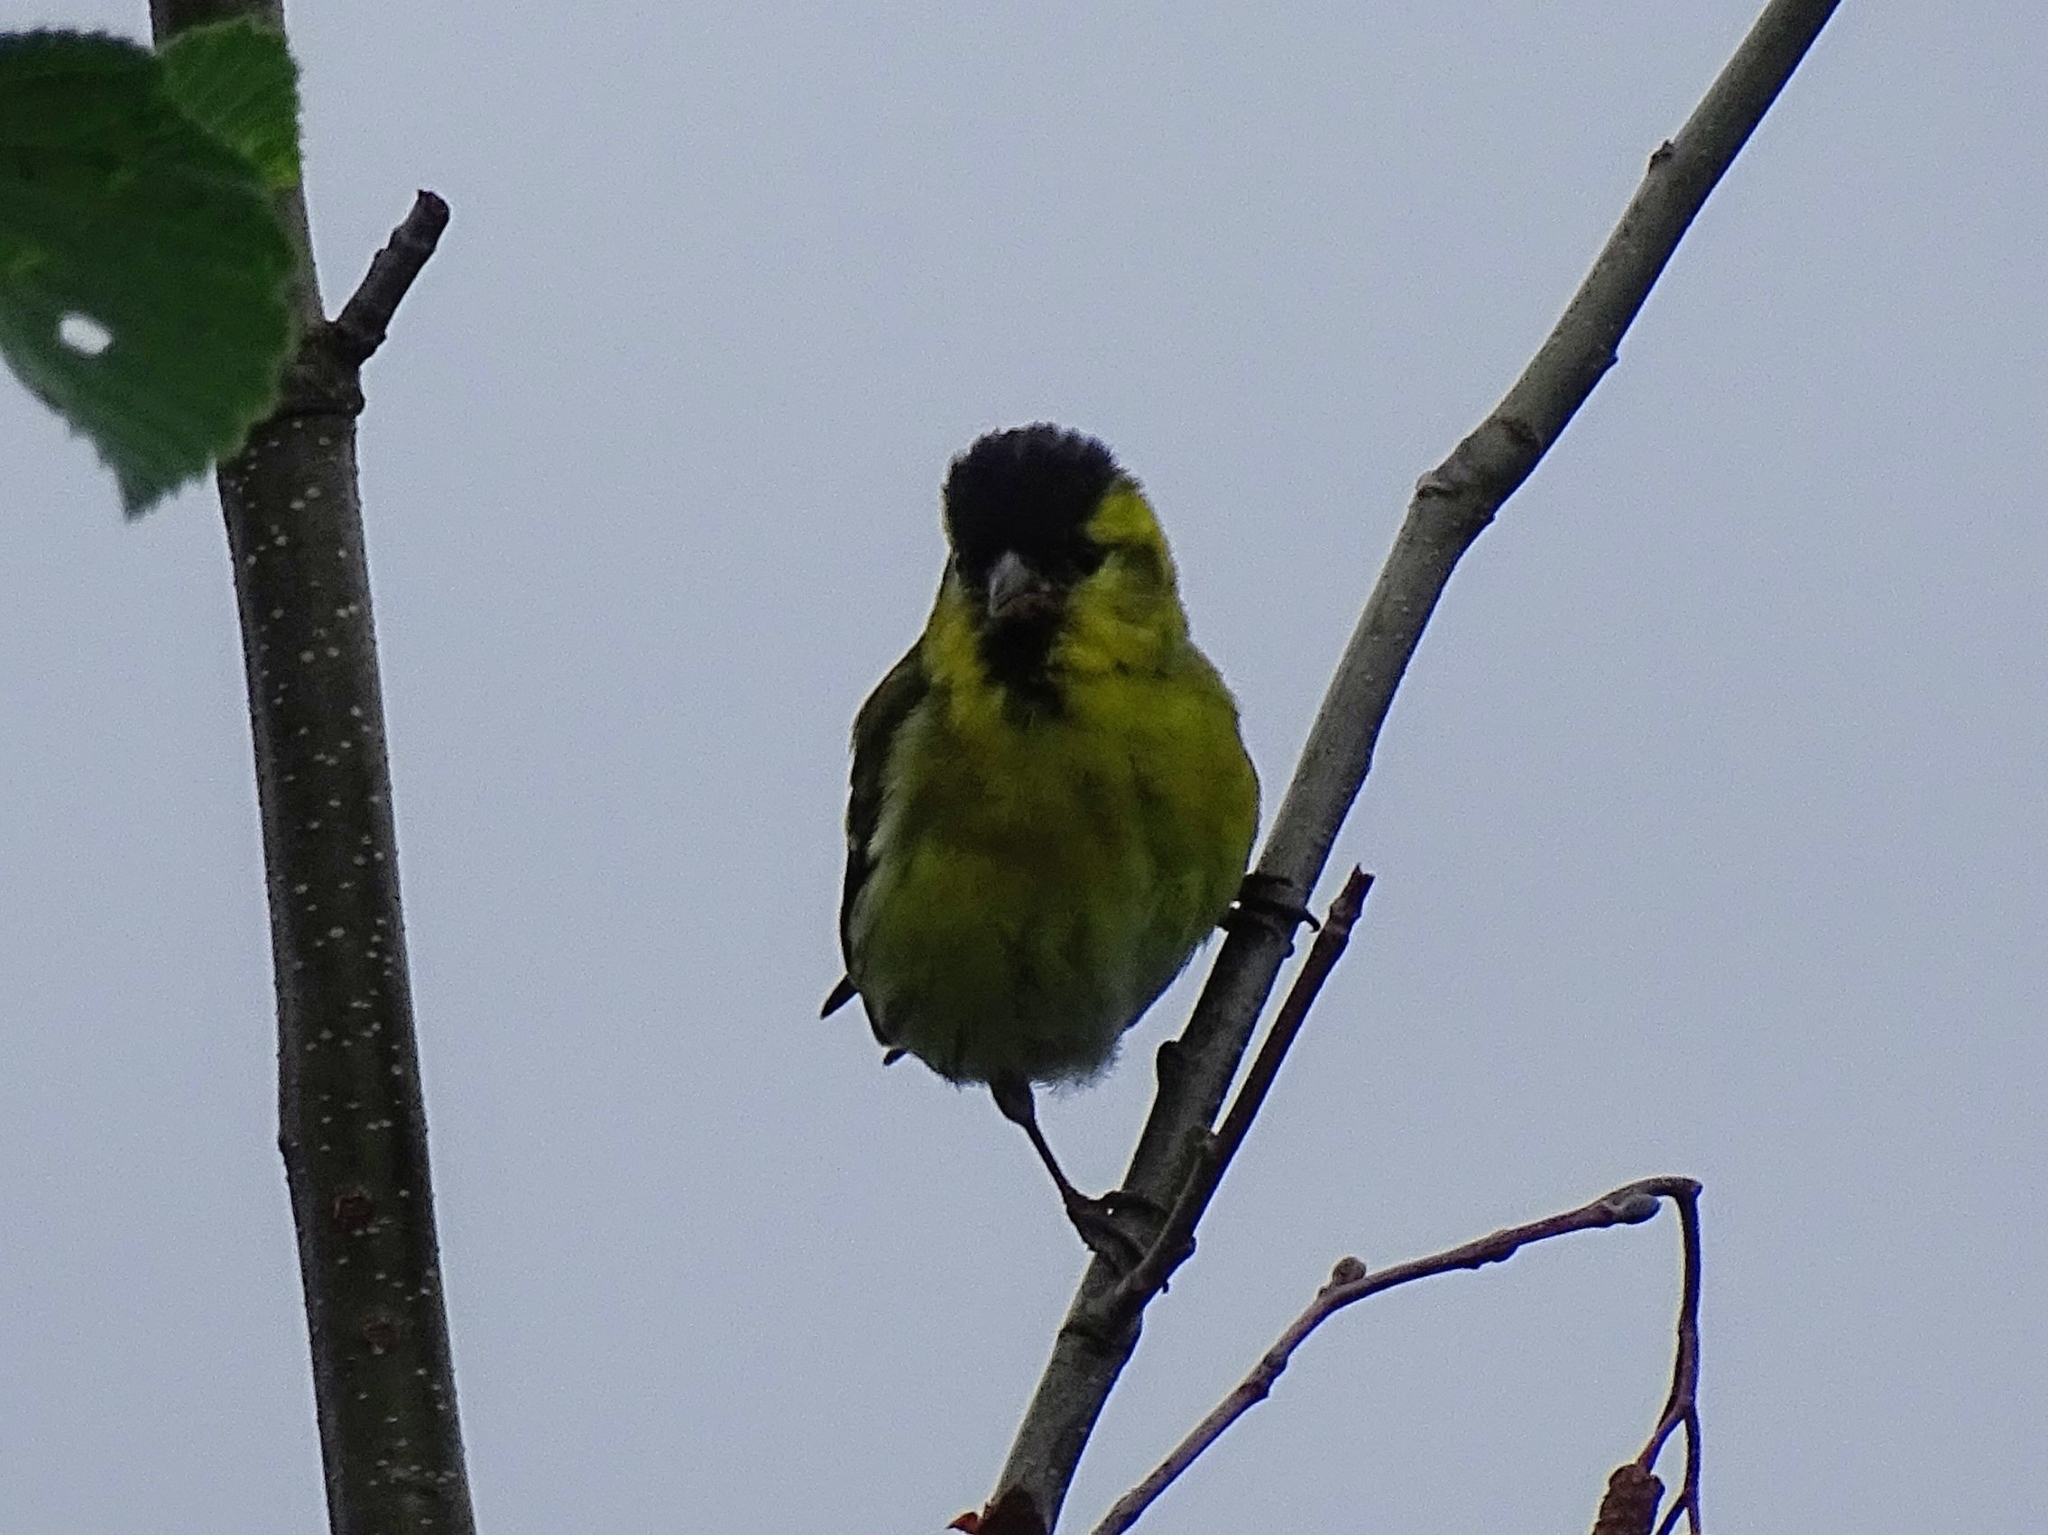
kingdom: Animalia
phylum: Chordata
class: Aves
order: Passeriformes
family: Fringillidae
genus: Spinus
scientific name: Spinus spinus
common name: Eurasian siskin
